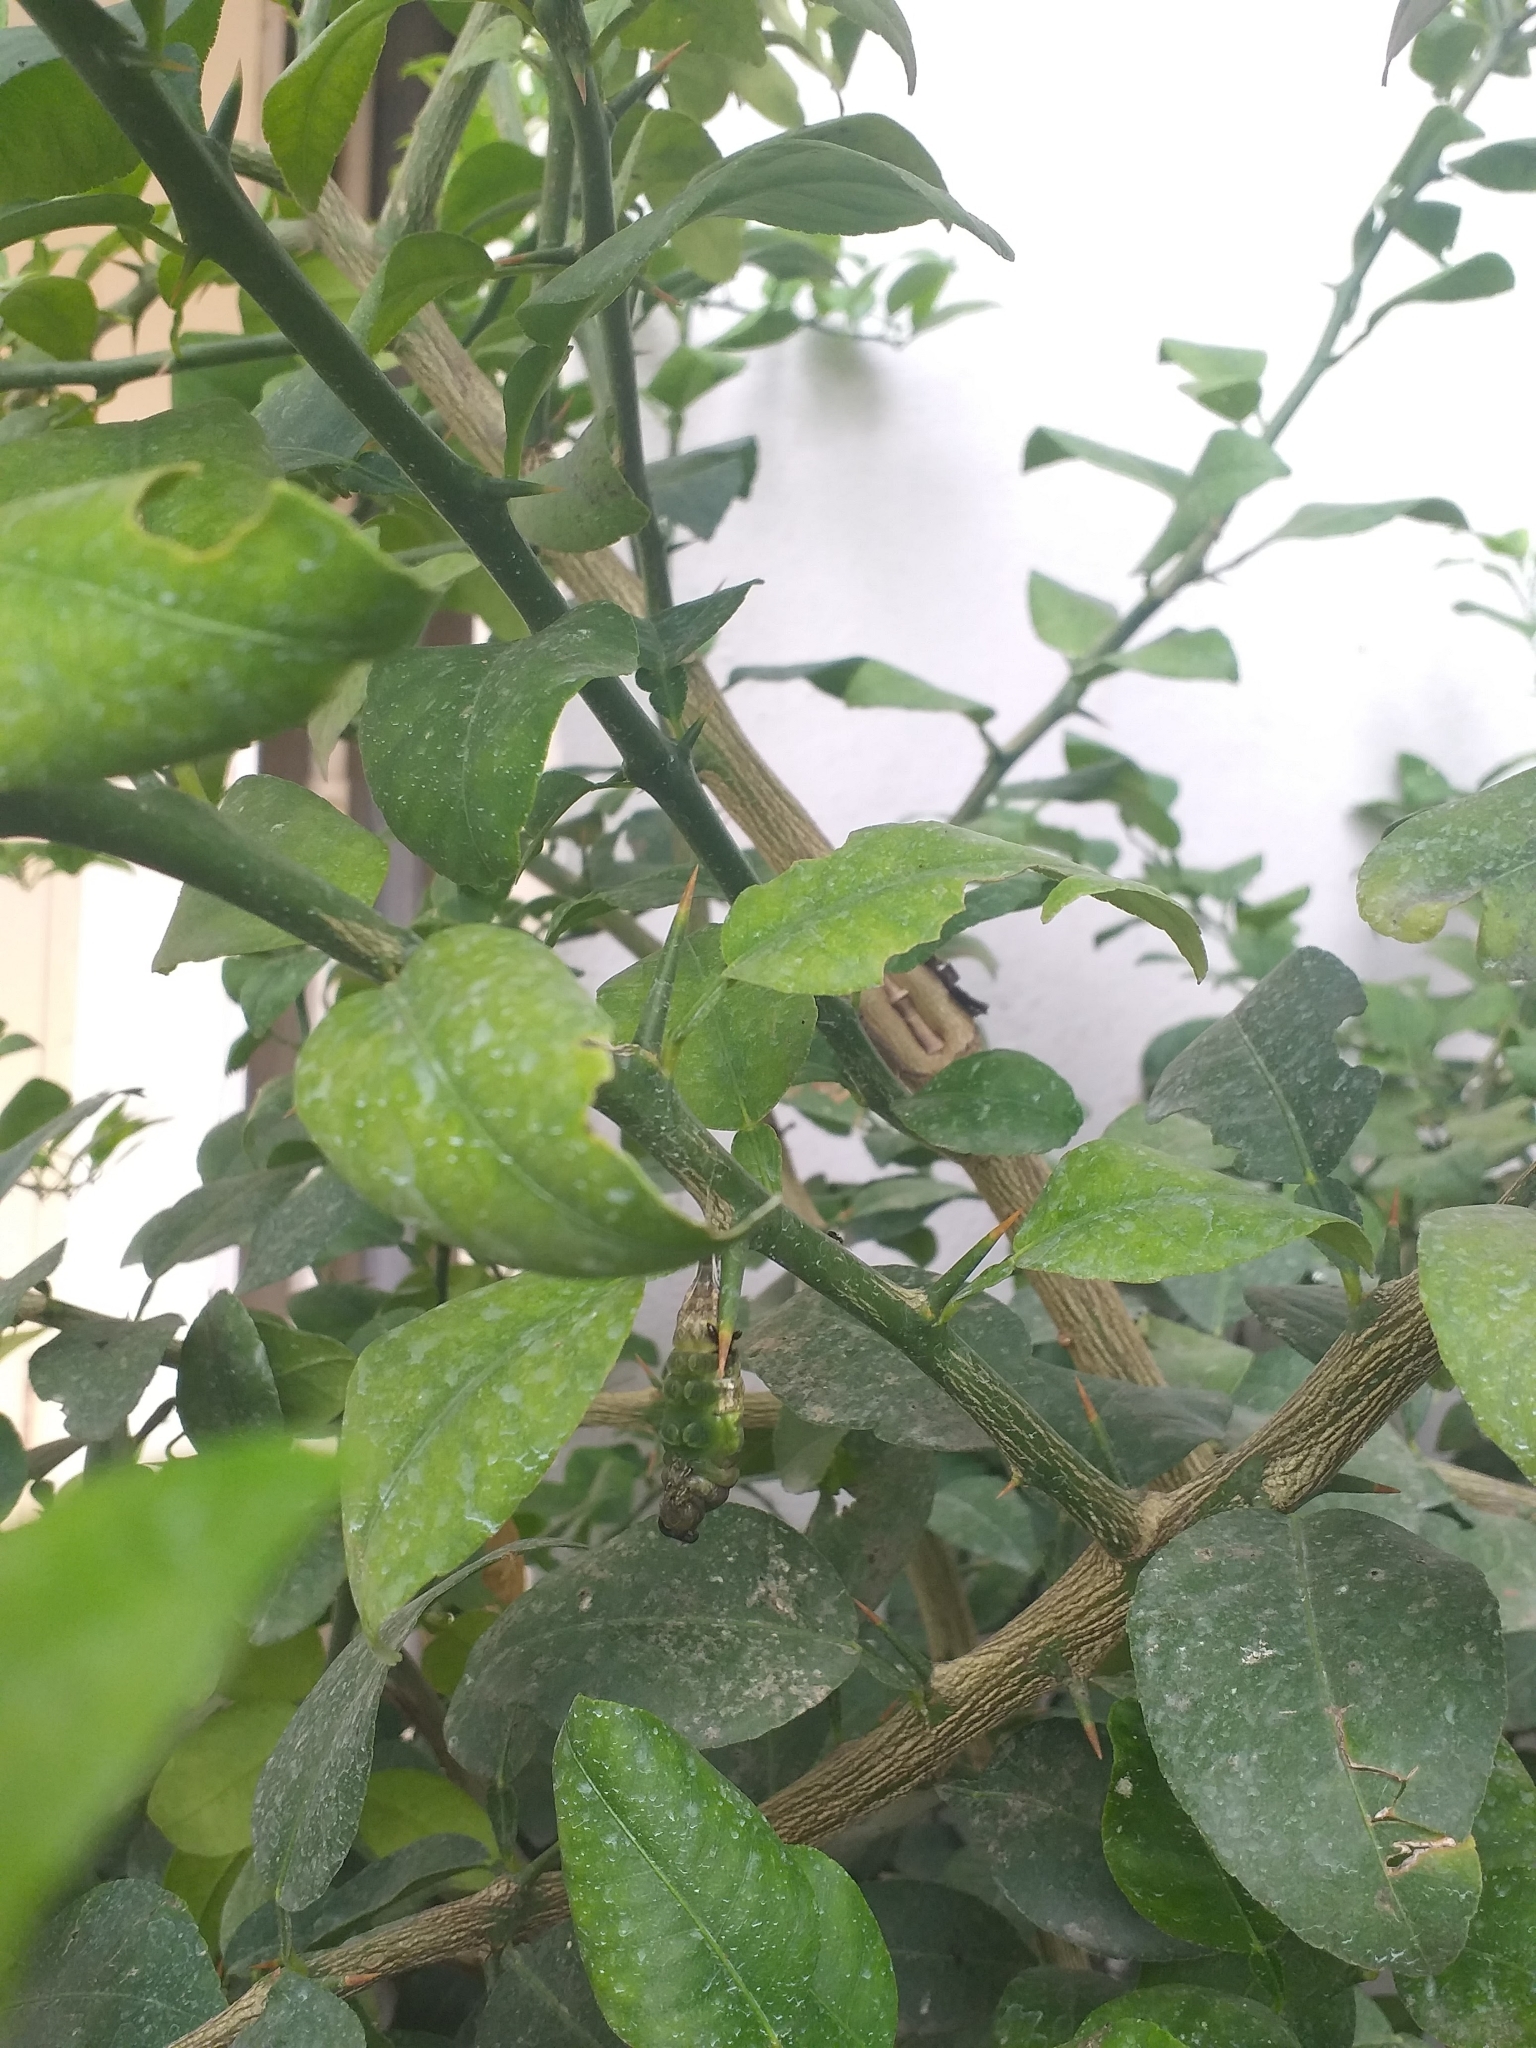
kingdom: Animalia
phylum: Arthropoda
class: Insecta
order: Lepidoptera
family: Papilionidae
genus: Papilio
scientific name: Papilio demoleus
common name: Lime butterfly
